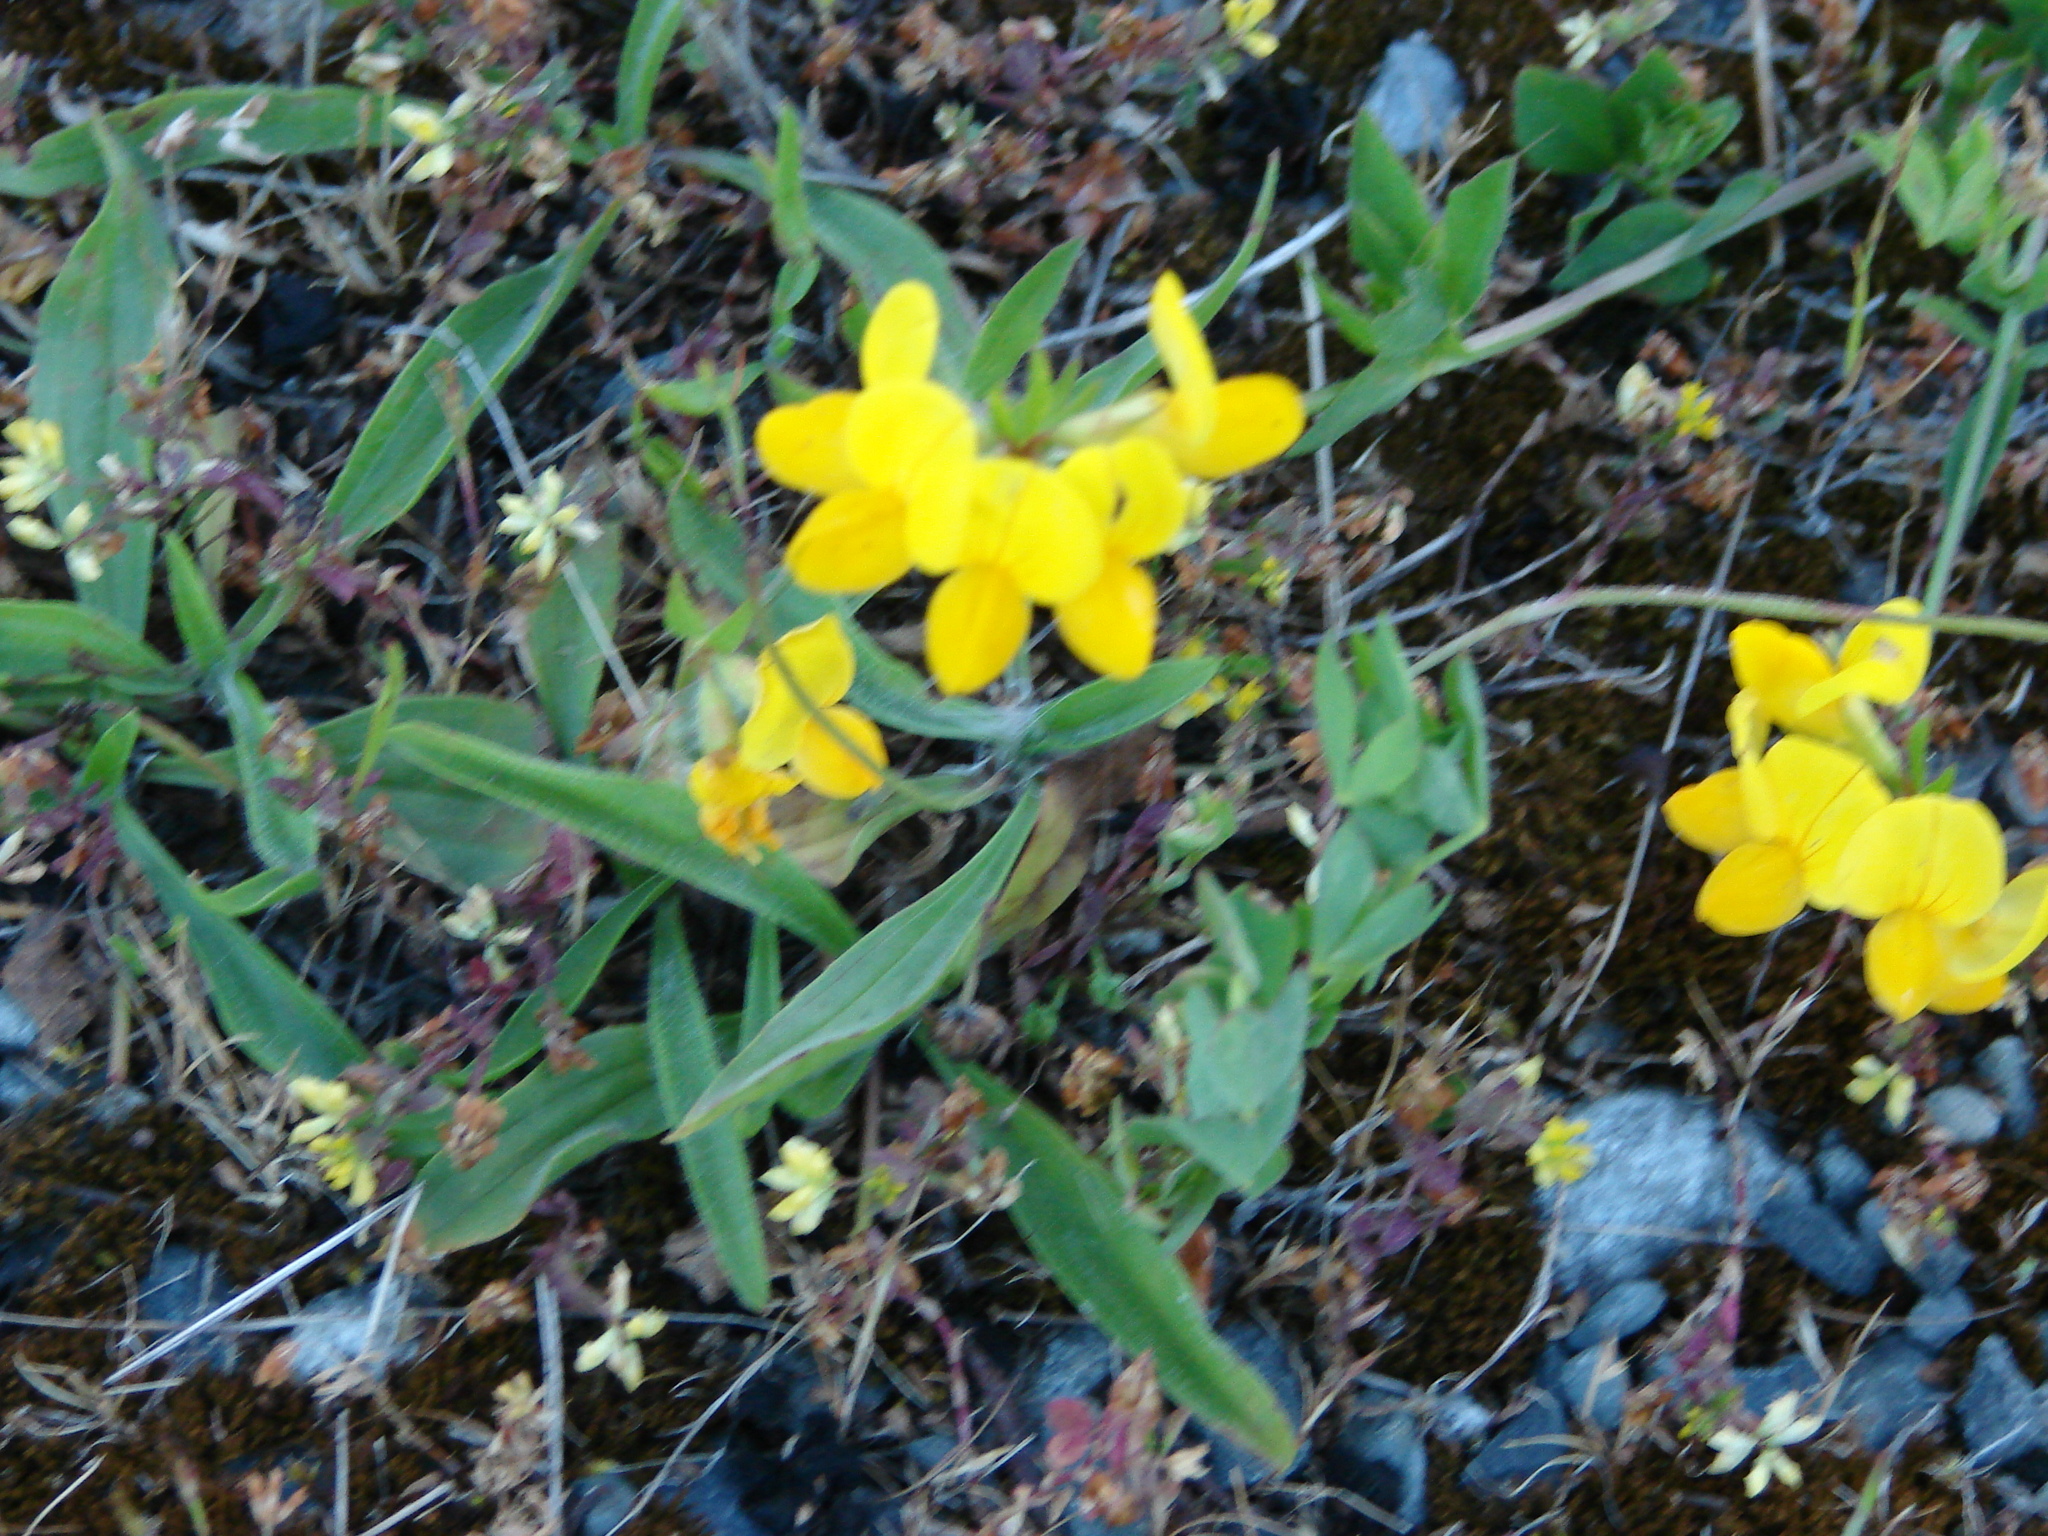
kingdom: Plantae
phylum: Tracheophyta
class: Magnoliopsida
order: Fabales
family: Fabaceae
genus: Lotus
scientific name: Lotus corniculatus
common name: Common bird's-foot-trefoil
